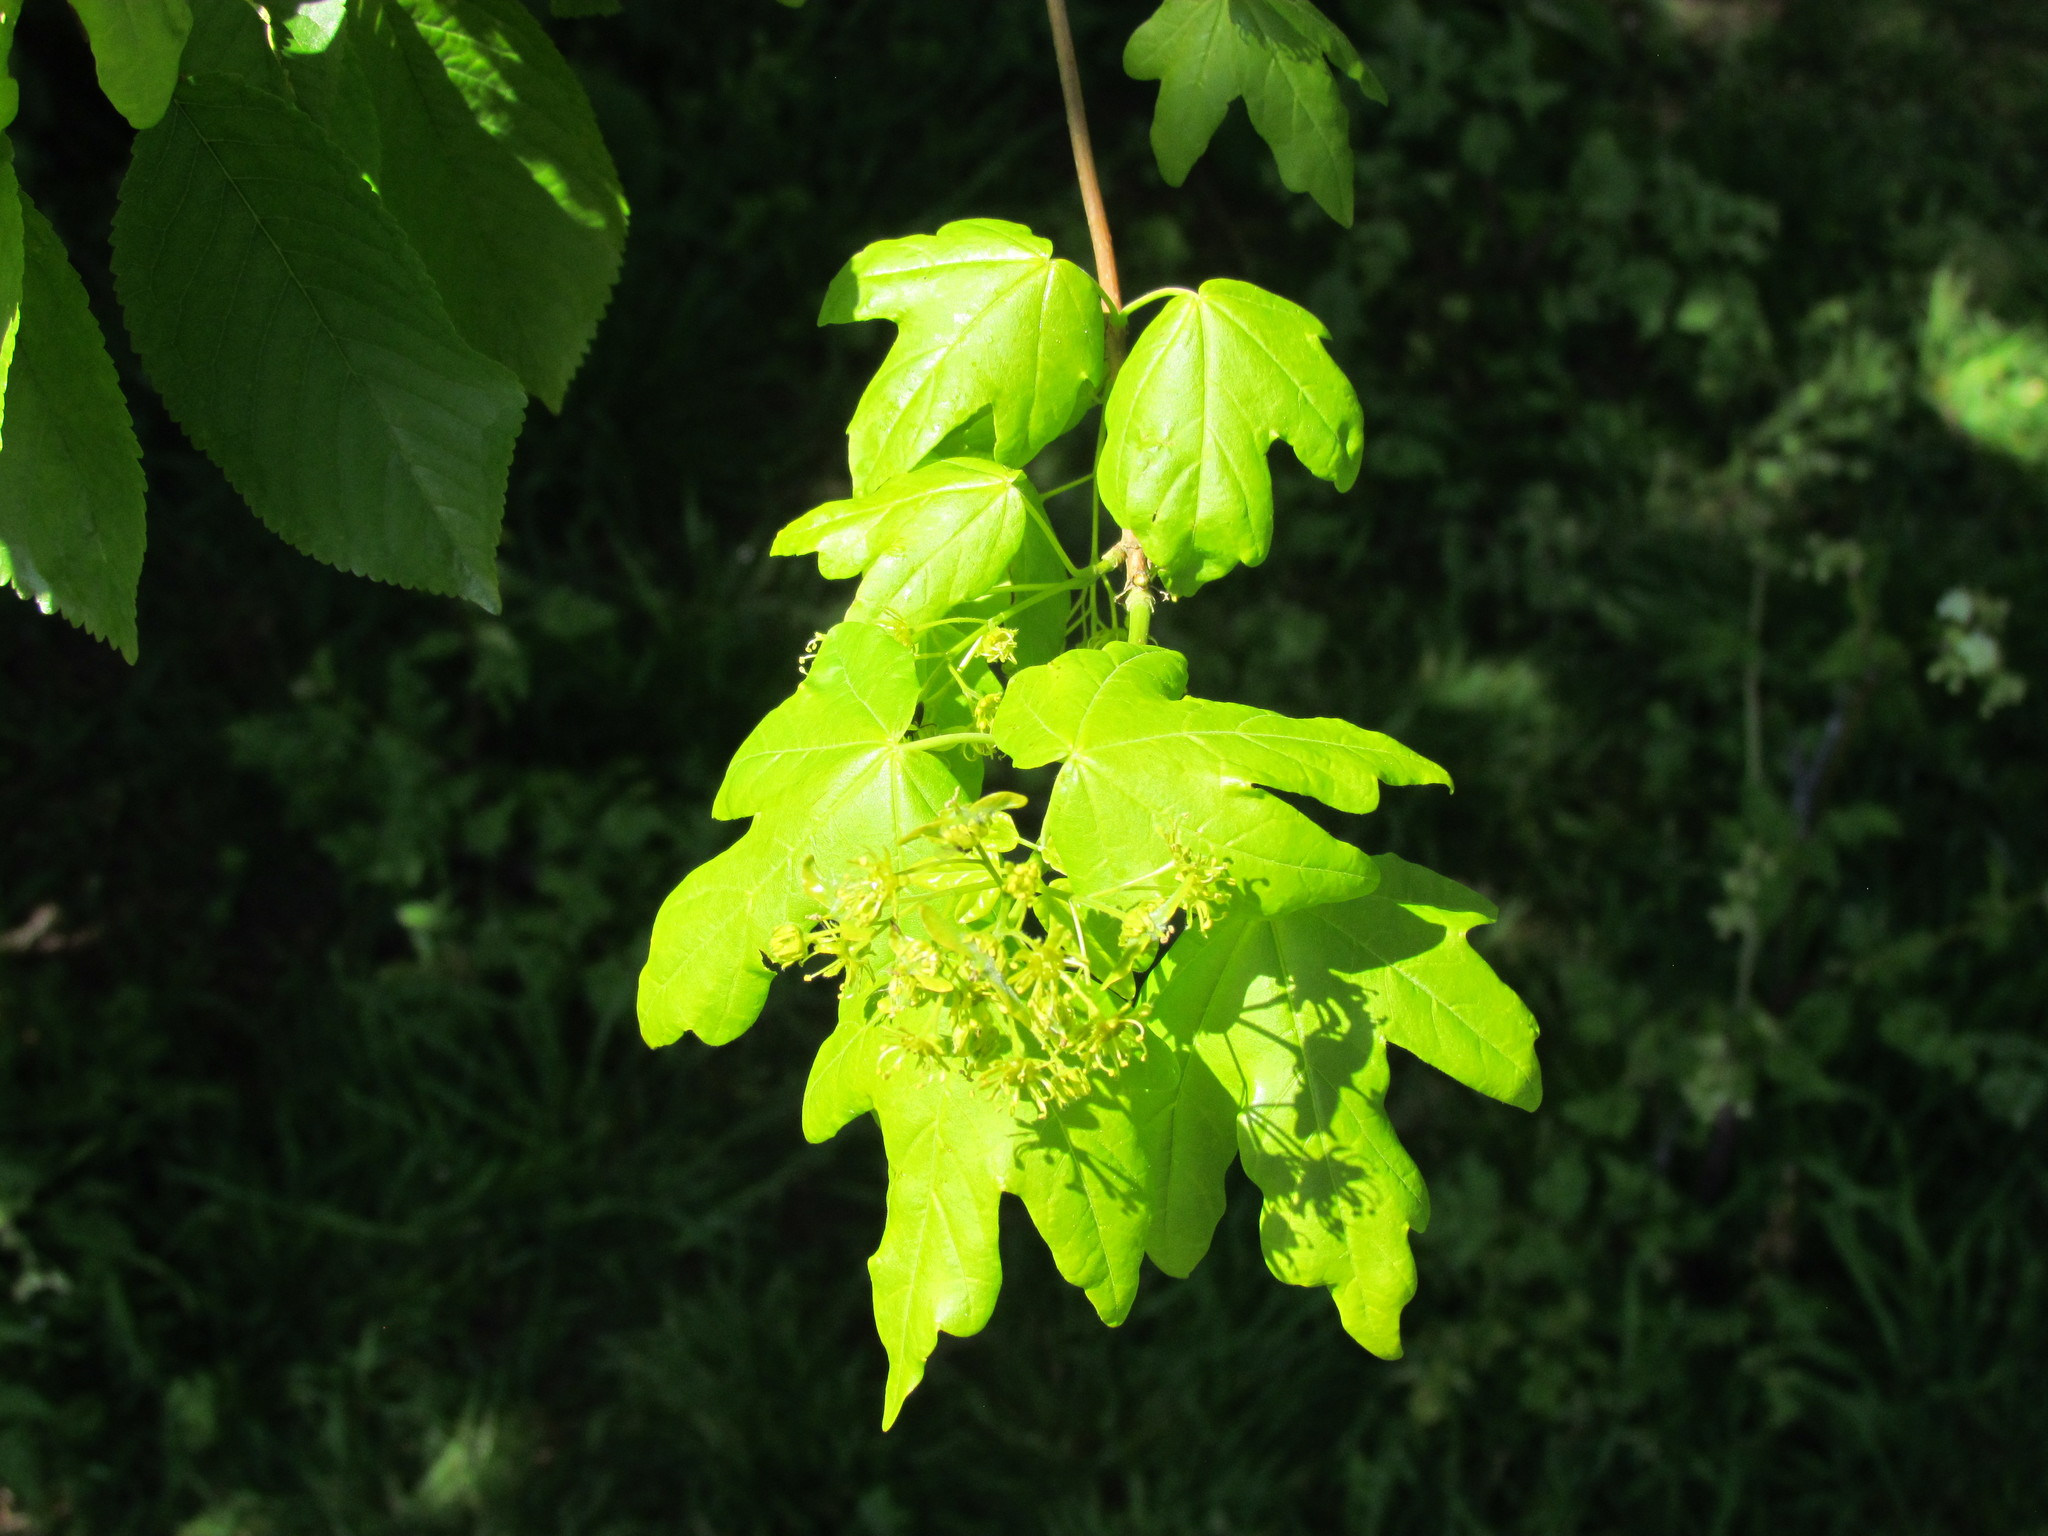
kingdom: Plantae
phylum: Tracheophyta
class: Magnoliopsida
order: Sapindales
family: Sapindaceae
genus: Acer
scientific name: Acer campestre
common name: Field maple
